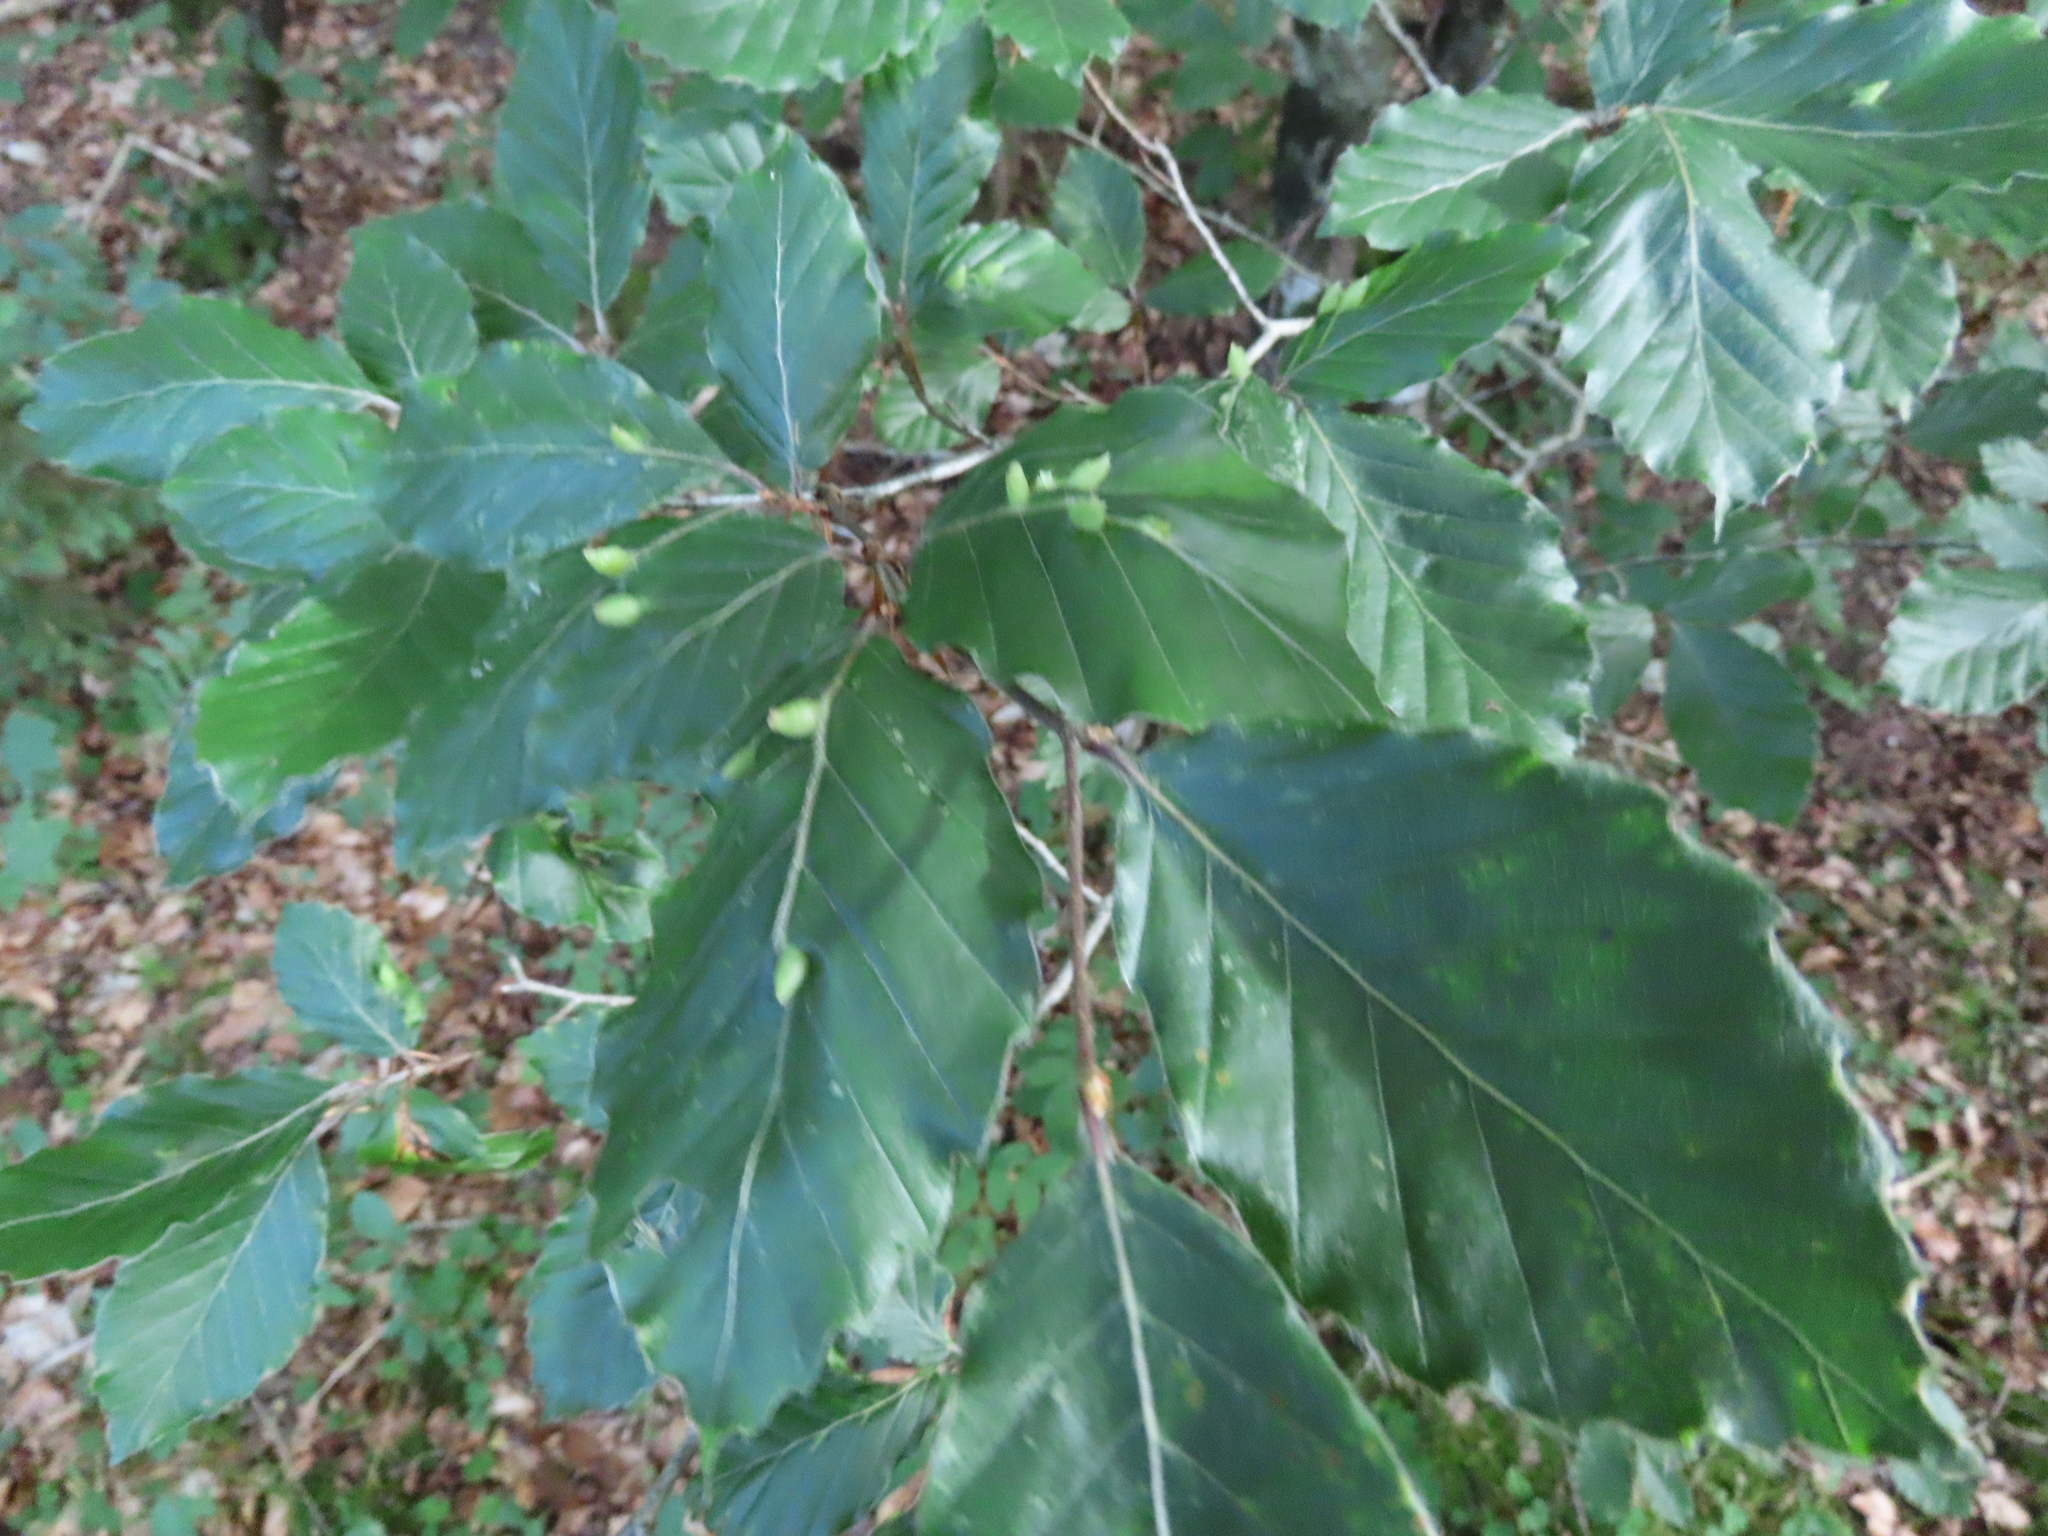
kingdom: Animalia
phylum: Arthropoda
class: Insecta
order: Diptera
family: Cecidomyiidae
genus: Mikiola
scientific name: Mikiola fagi
